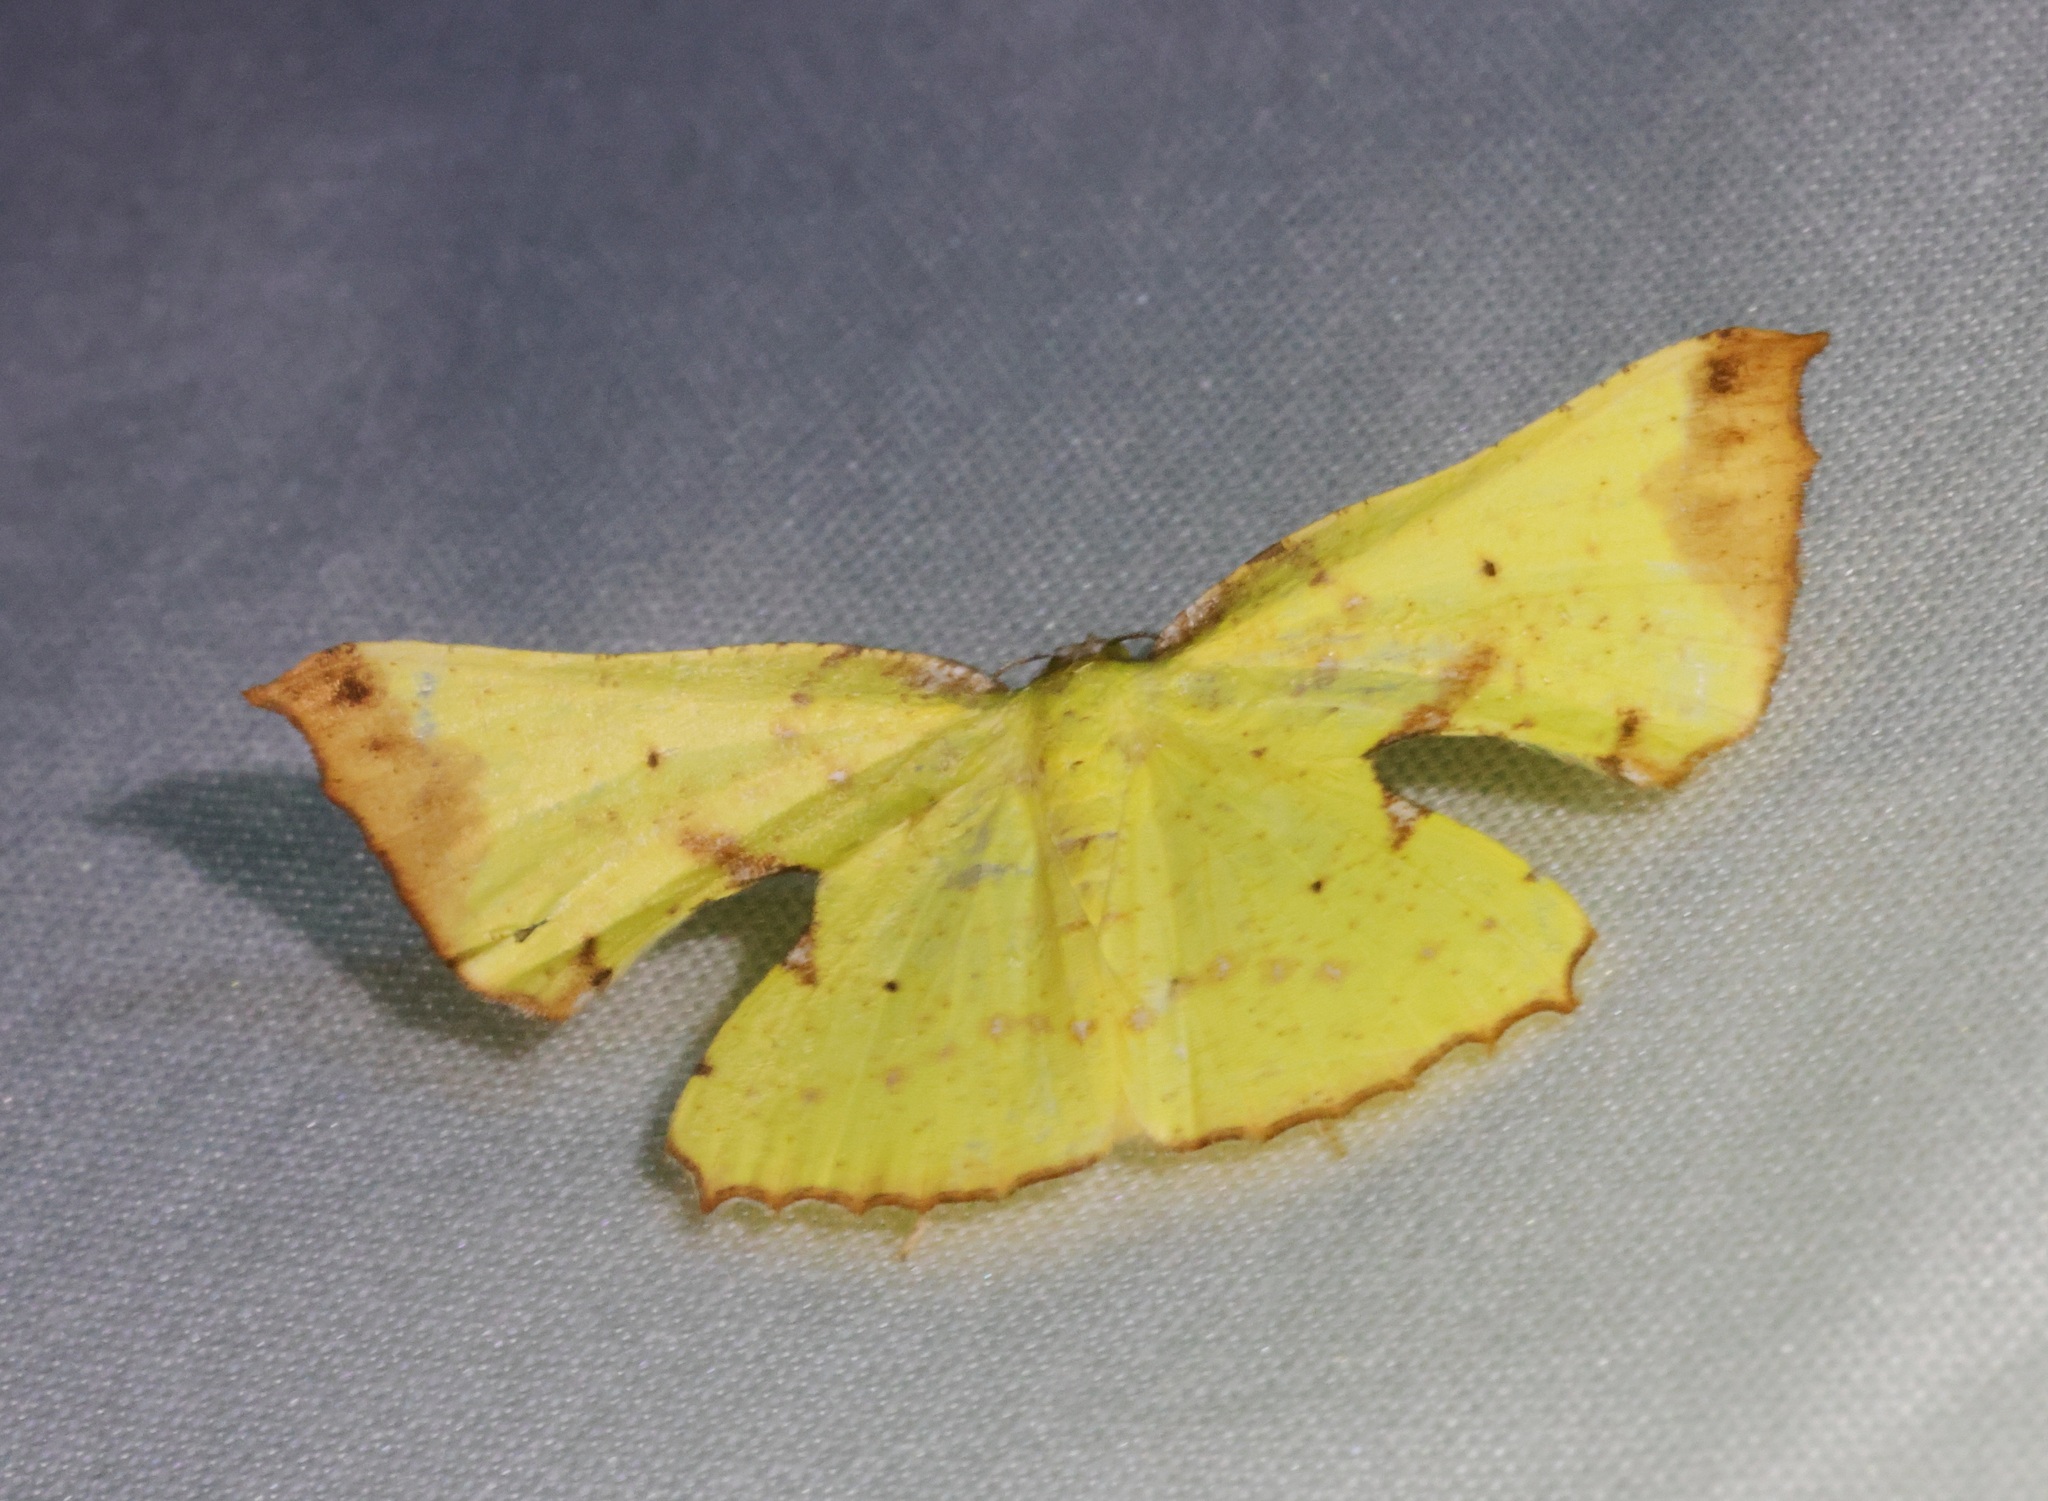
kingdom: Animalia
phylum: Arthropoda
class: Insecta
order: Lepidoptera
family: Geometridae
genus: Corymica
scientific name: Corymica arnearia
